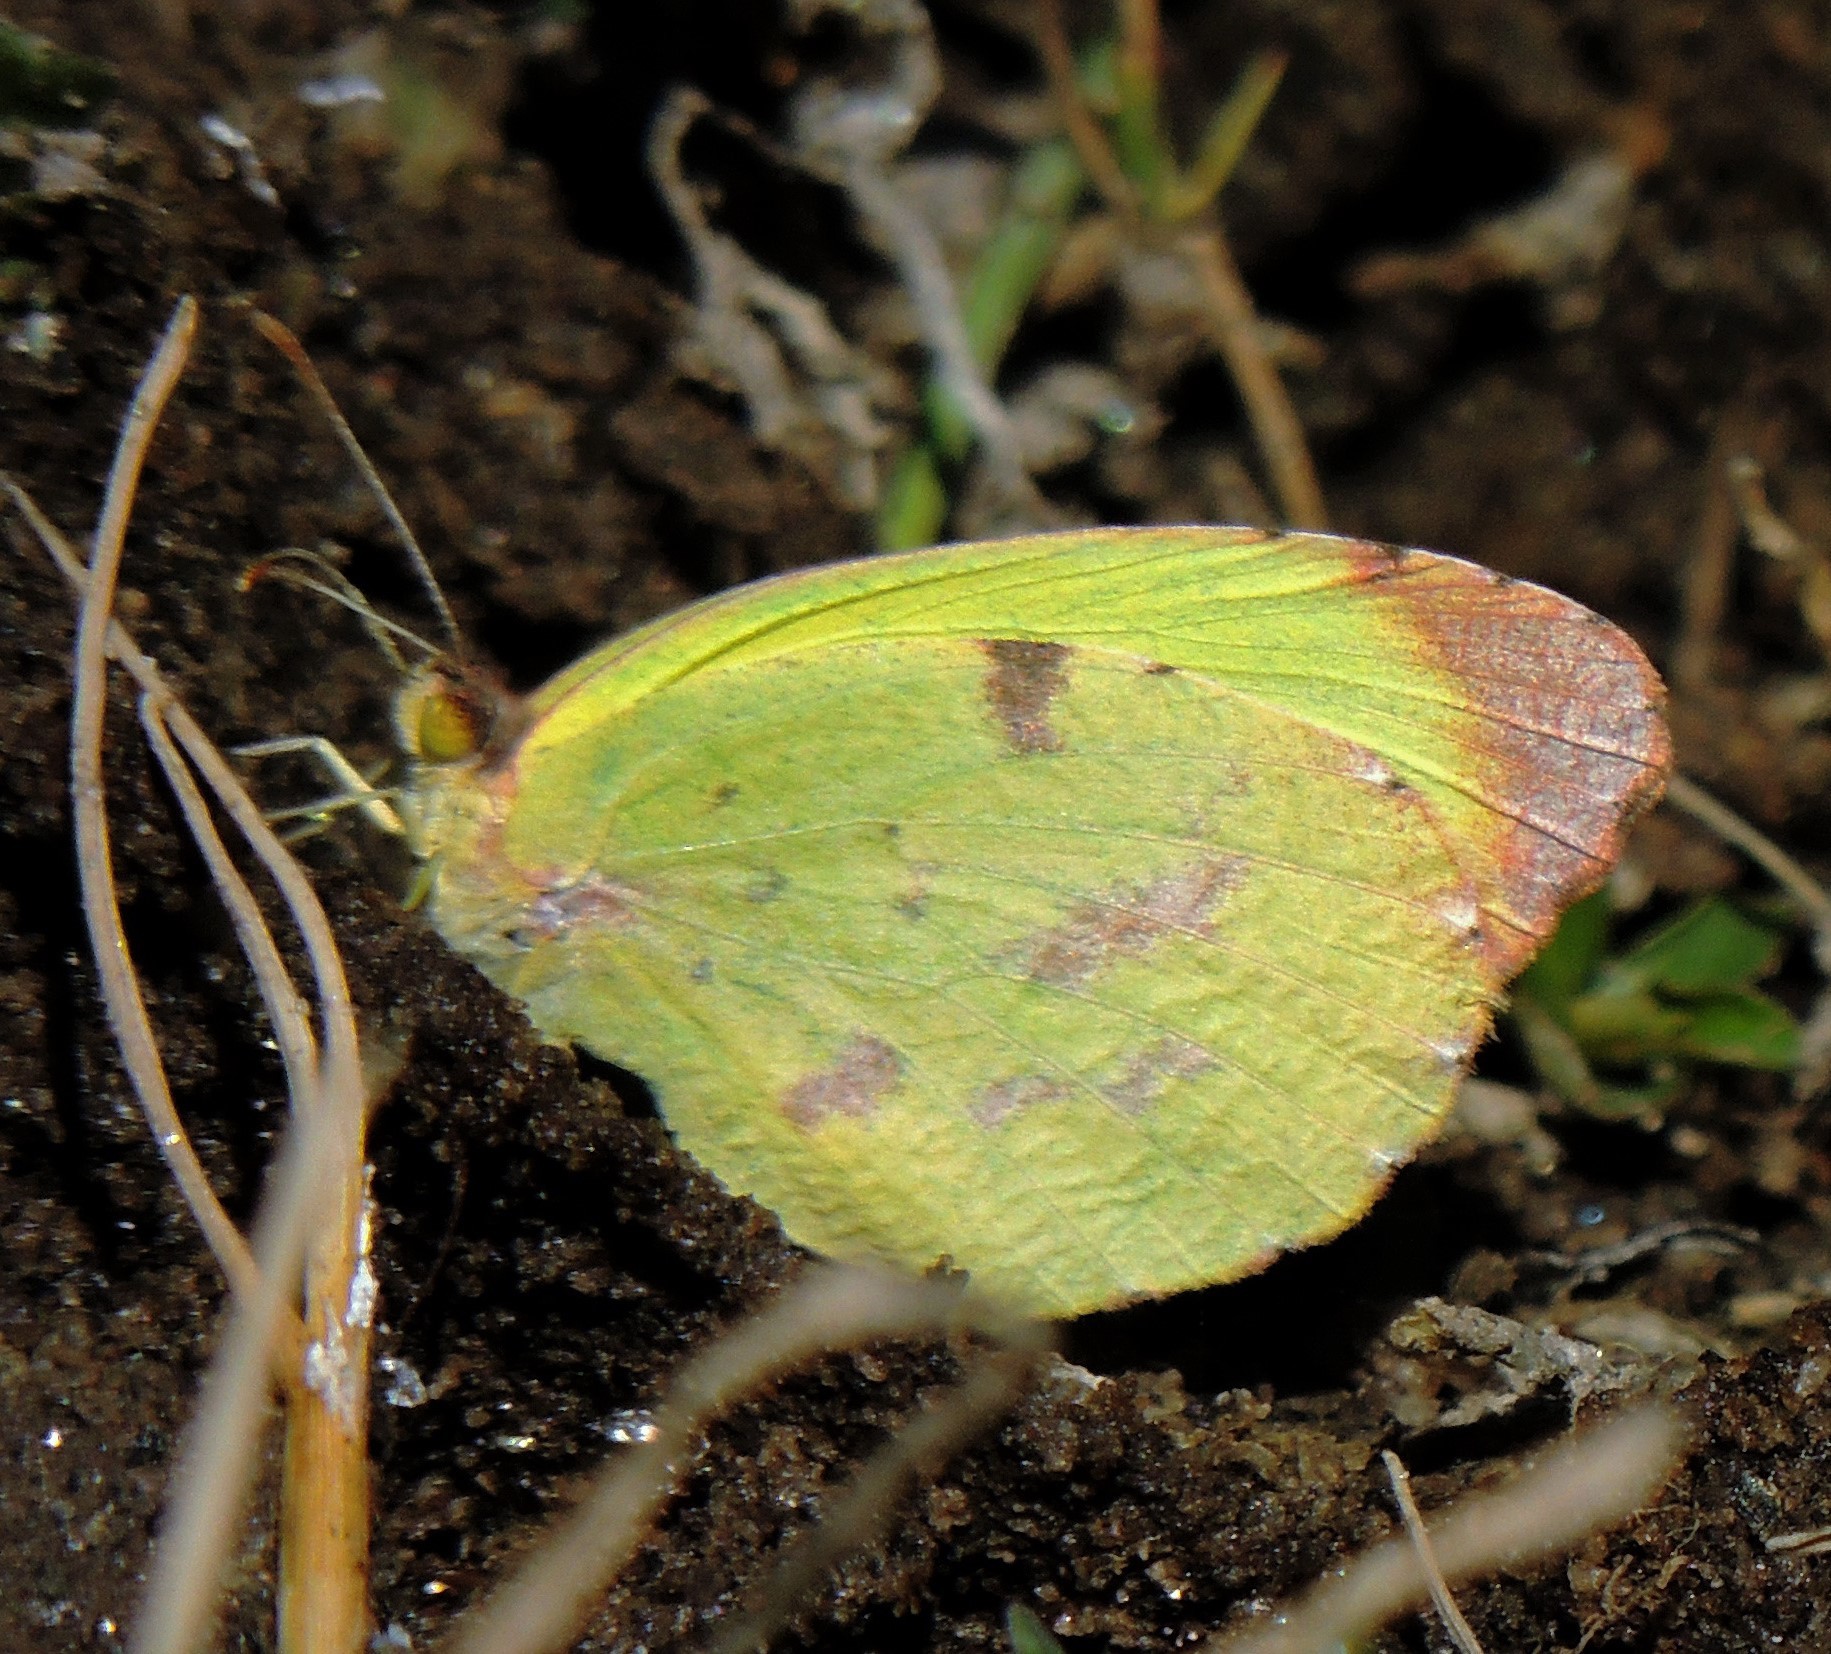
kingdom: Animalia
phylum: Arthropoda
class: Insecta
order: Lepidoptera
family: Pieridae
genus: Teriocolias
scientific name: Teriocolias
